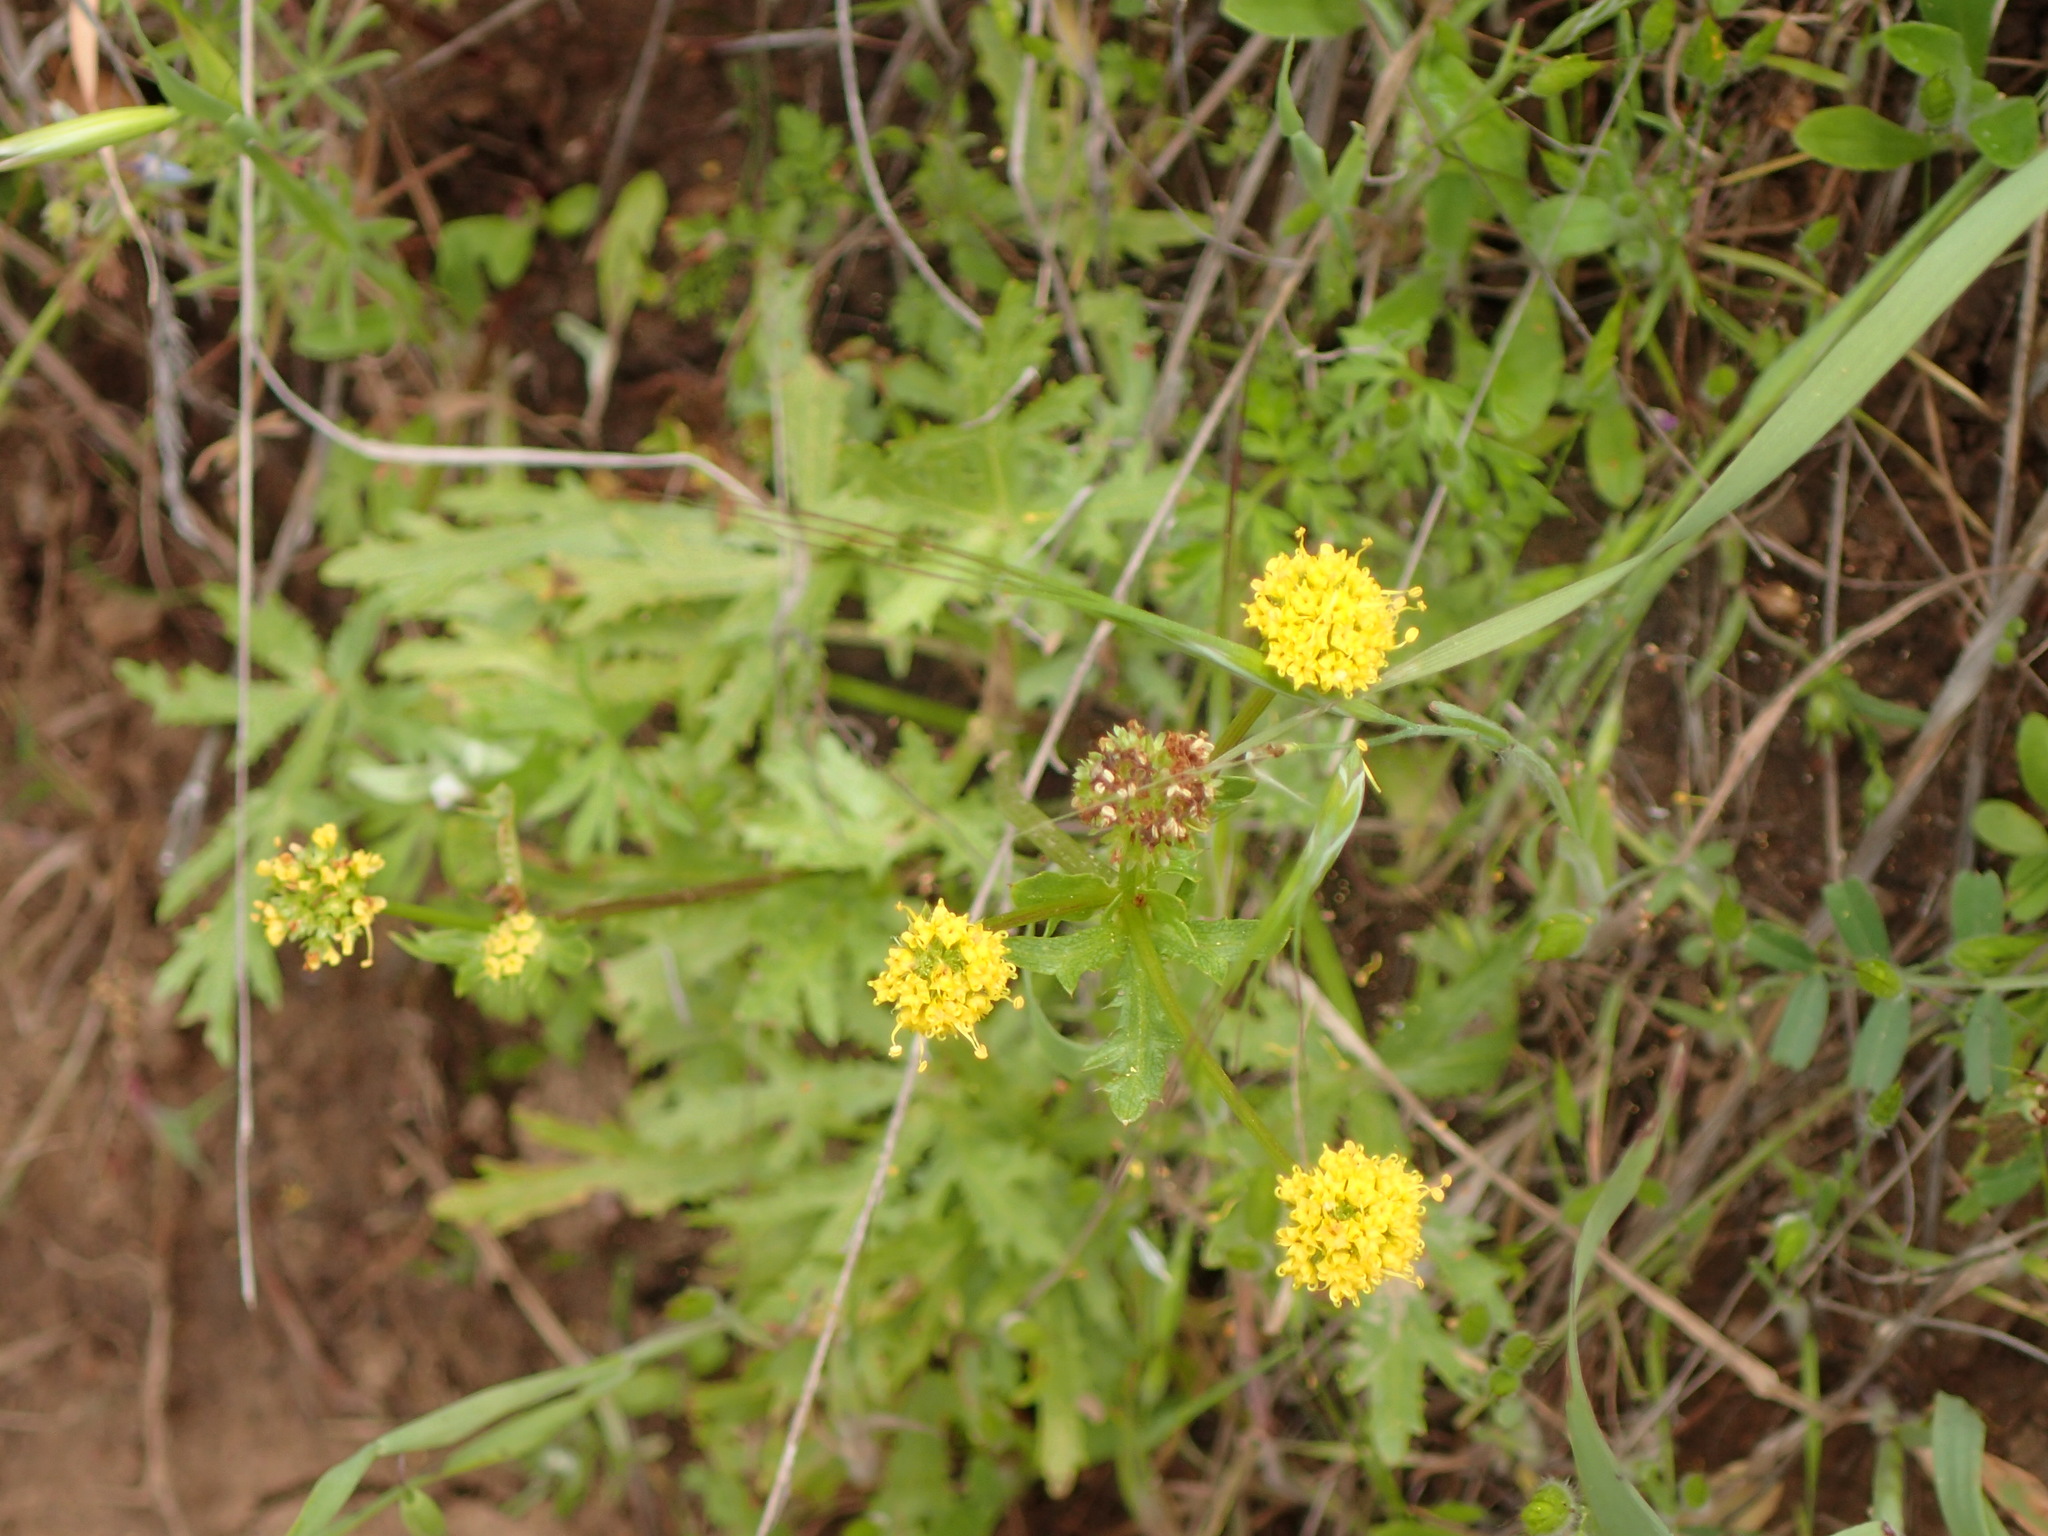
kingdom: Plantae
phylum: Tracheophyta
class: Magnoliopsida
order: Apiales
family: Apiaceae
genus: Sanicula
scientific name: Sanicula arguta
